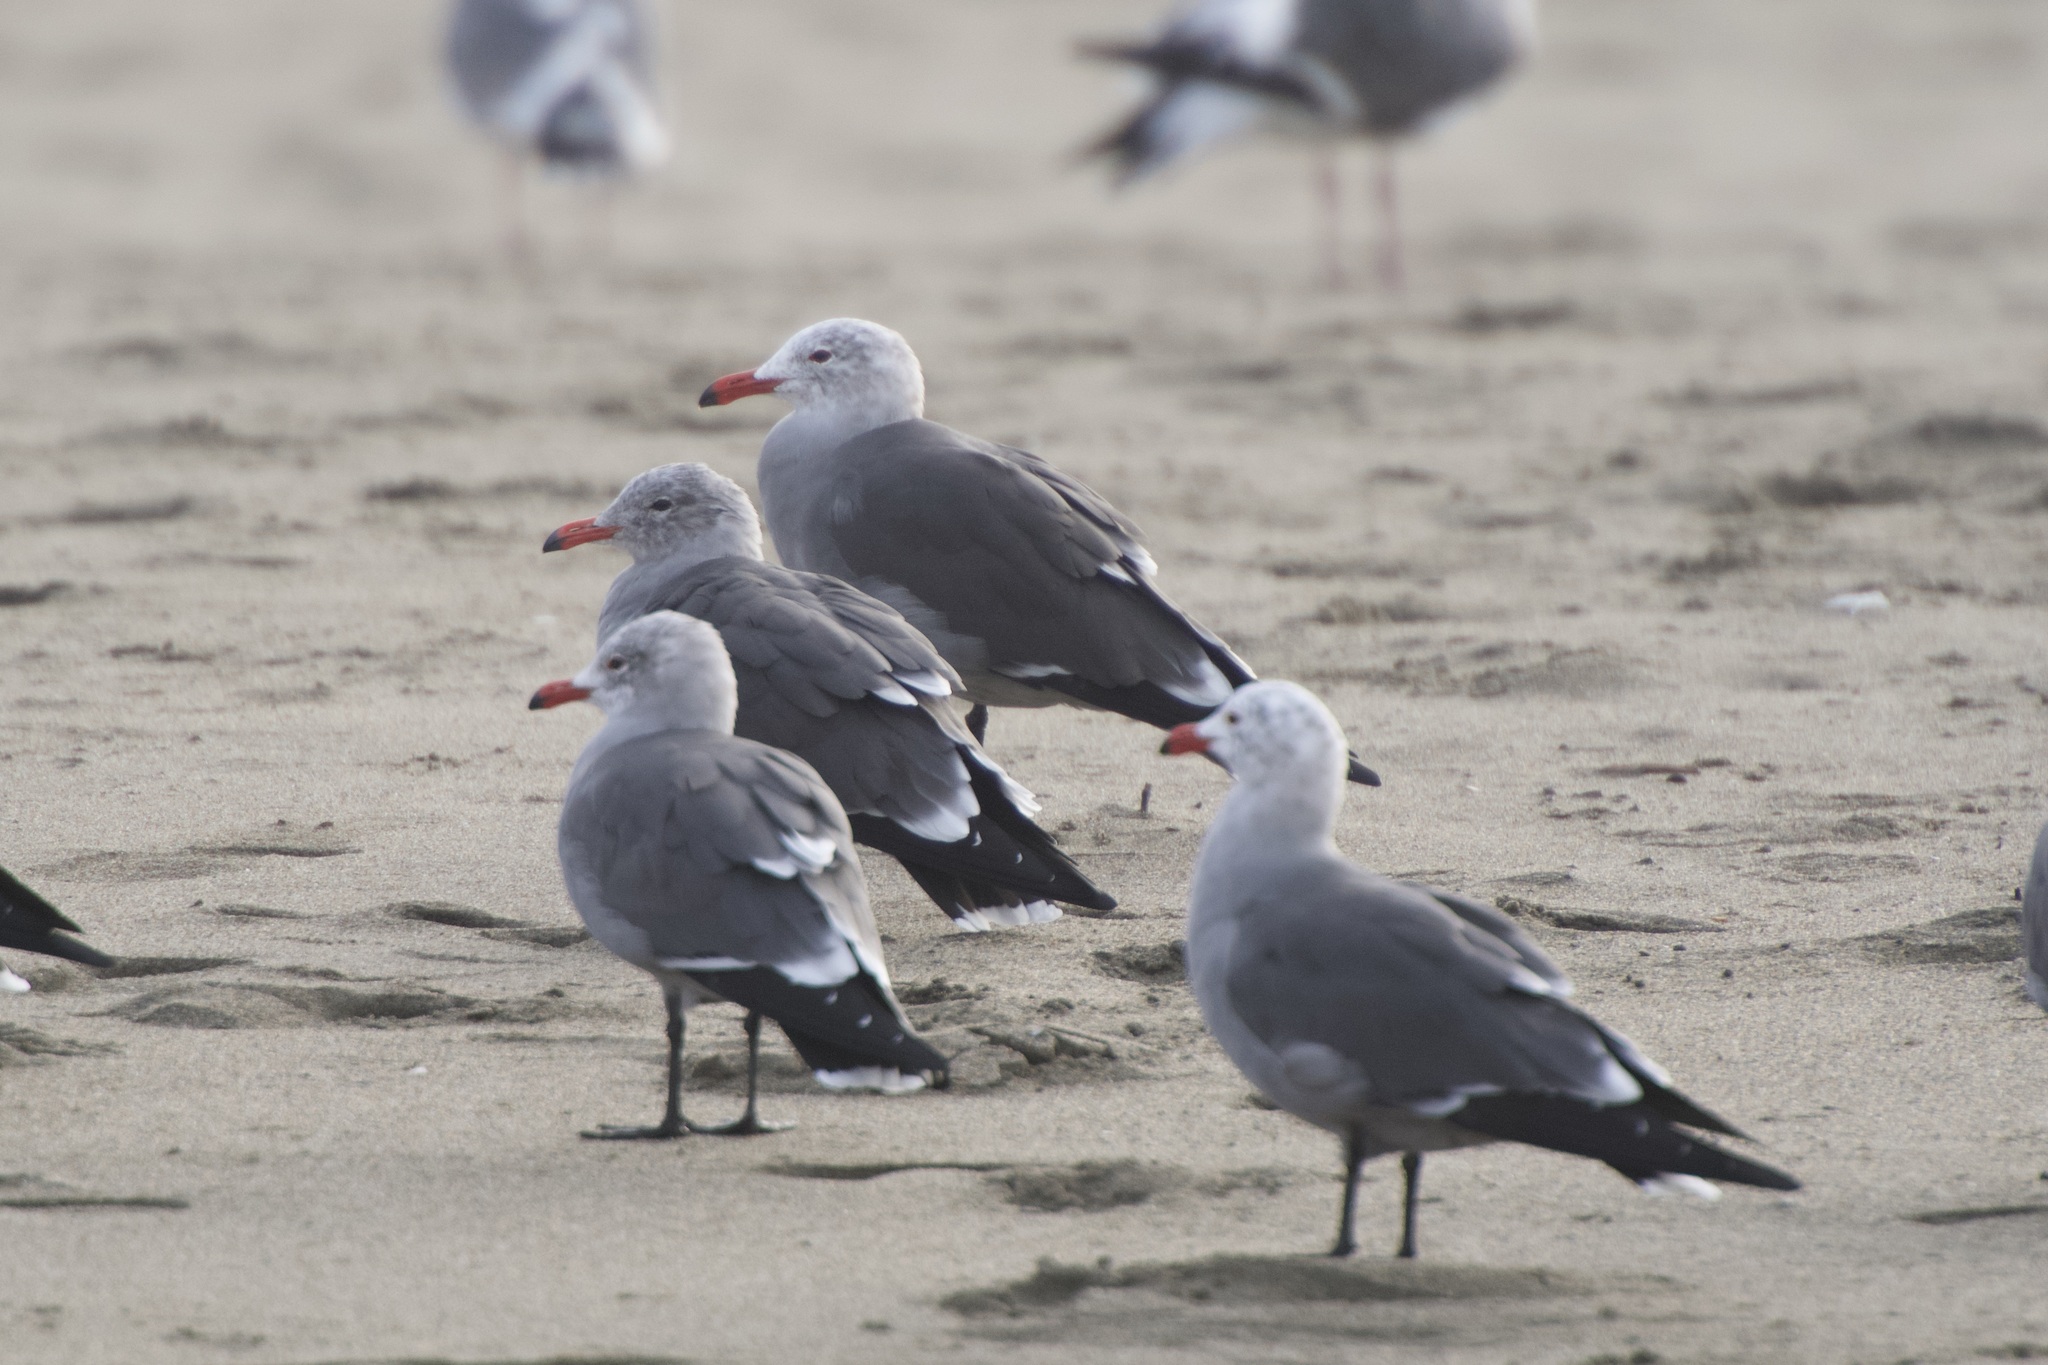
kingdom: Animalia
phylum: Chordata
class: Aves
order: Charadriiformes
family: Laridae
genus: Larus
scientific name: Larus heermanni
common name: Heermann's gull
